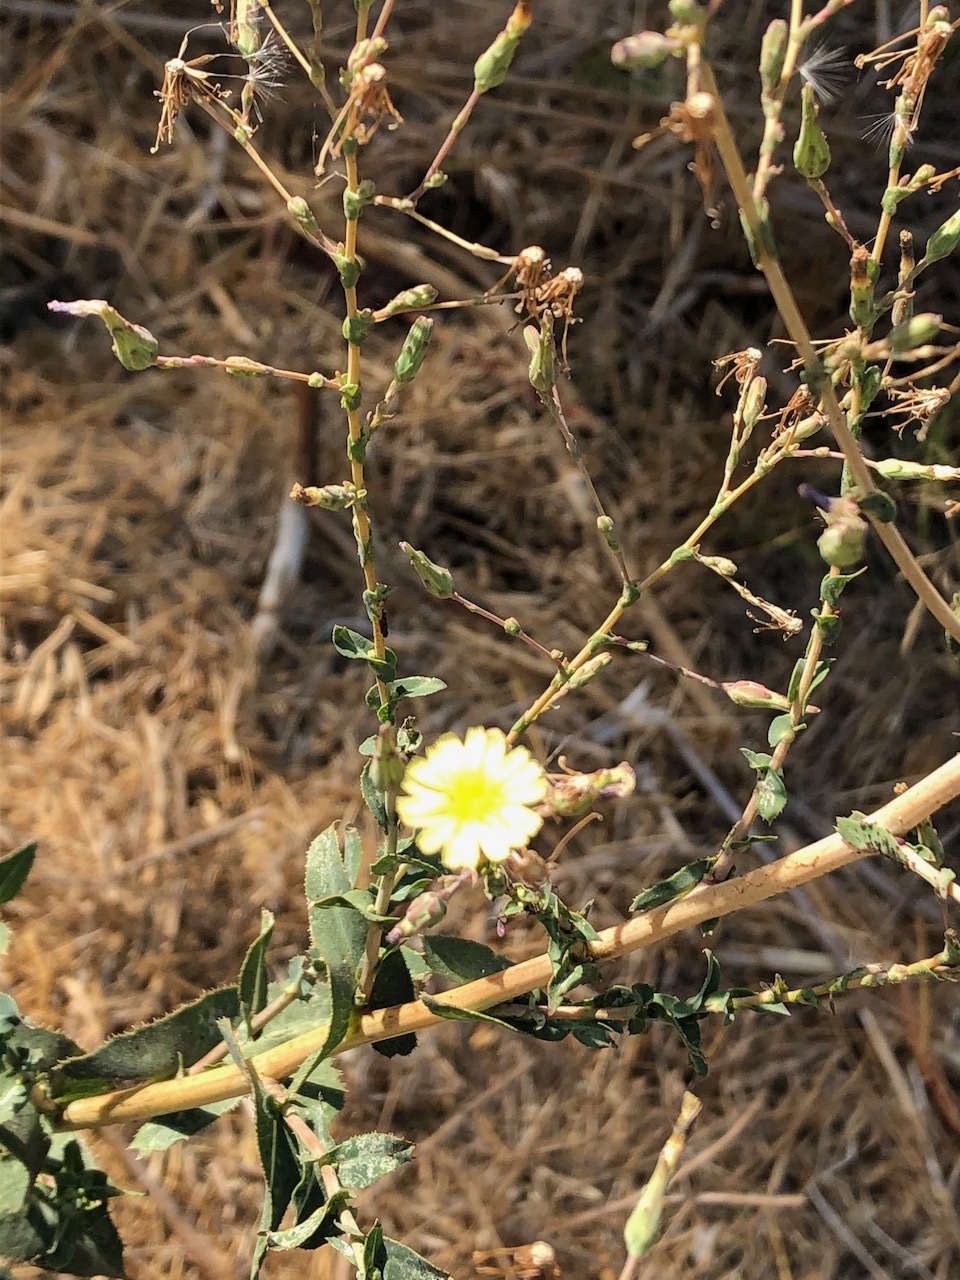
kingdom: Plantae
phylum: Tracheophyta
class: Magnoliopsida
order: Asterales
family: Asteraceae
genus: Lactuca
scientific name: Lactuca serriola
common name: Prickly lettuce
